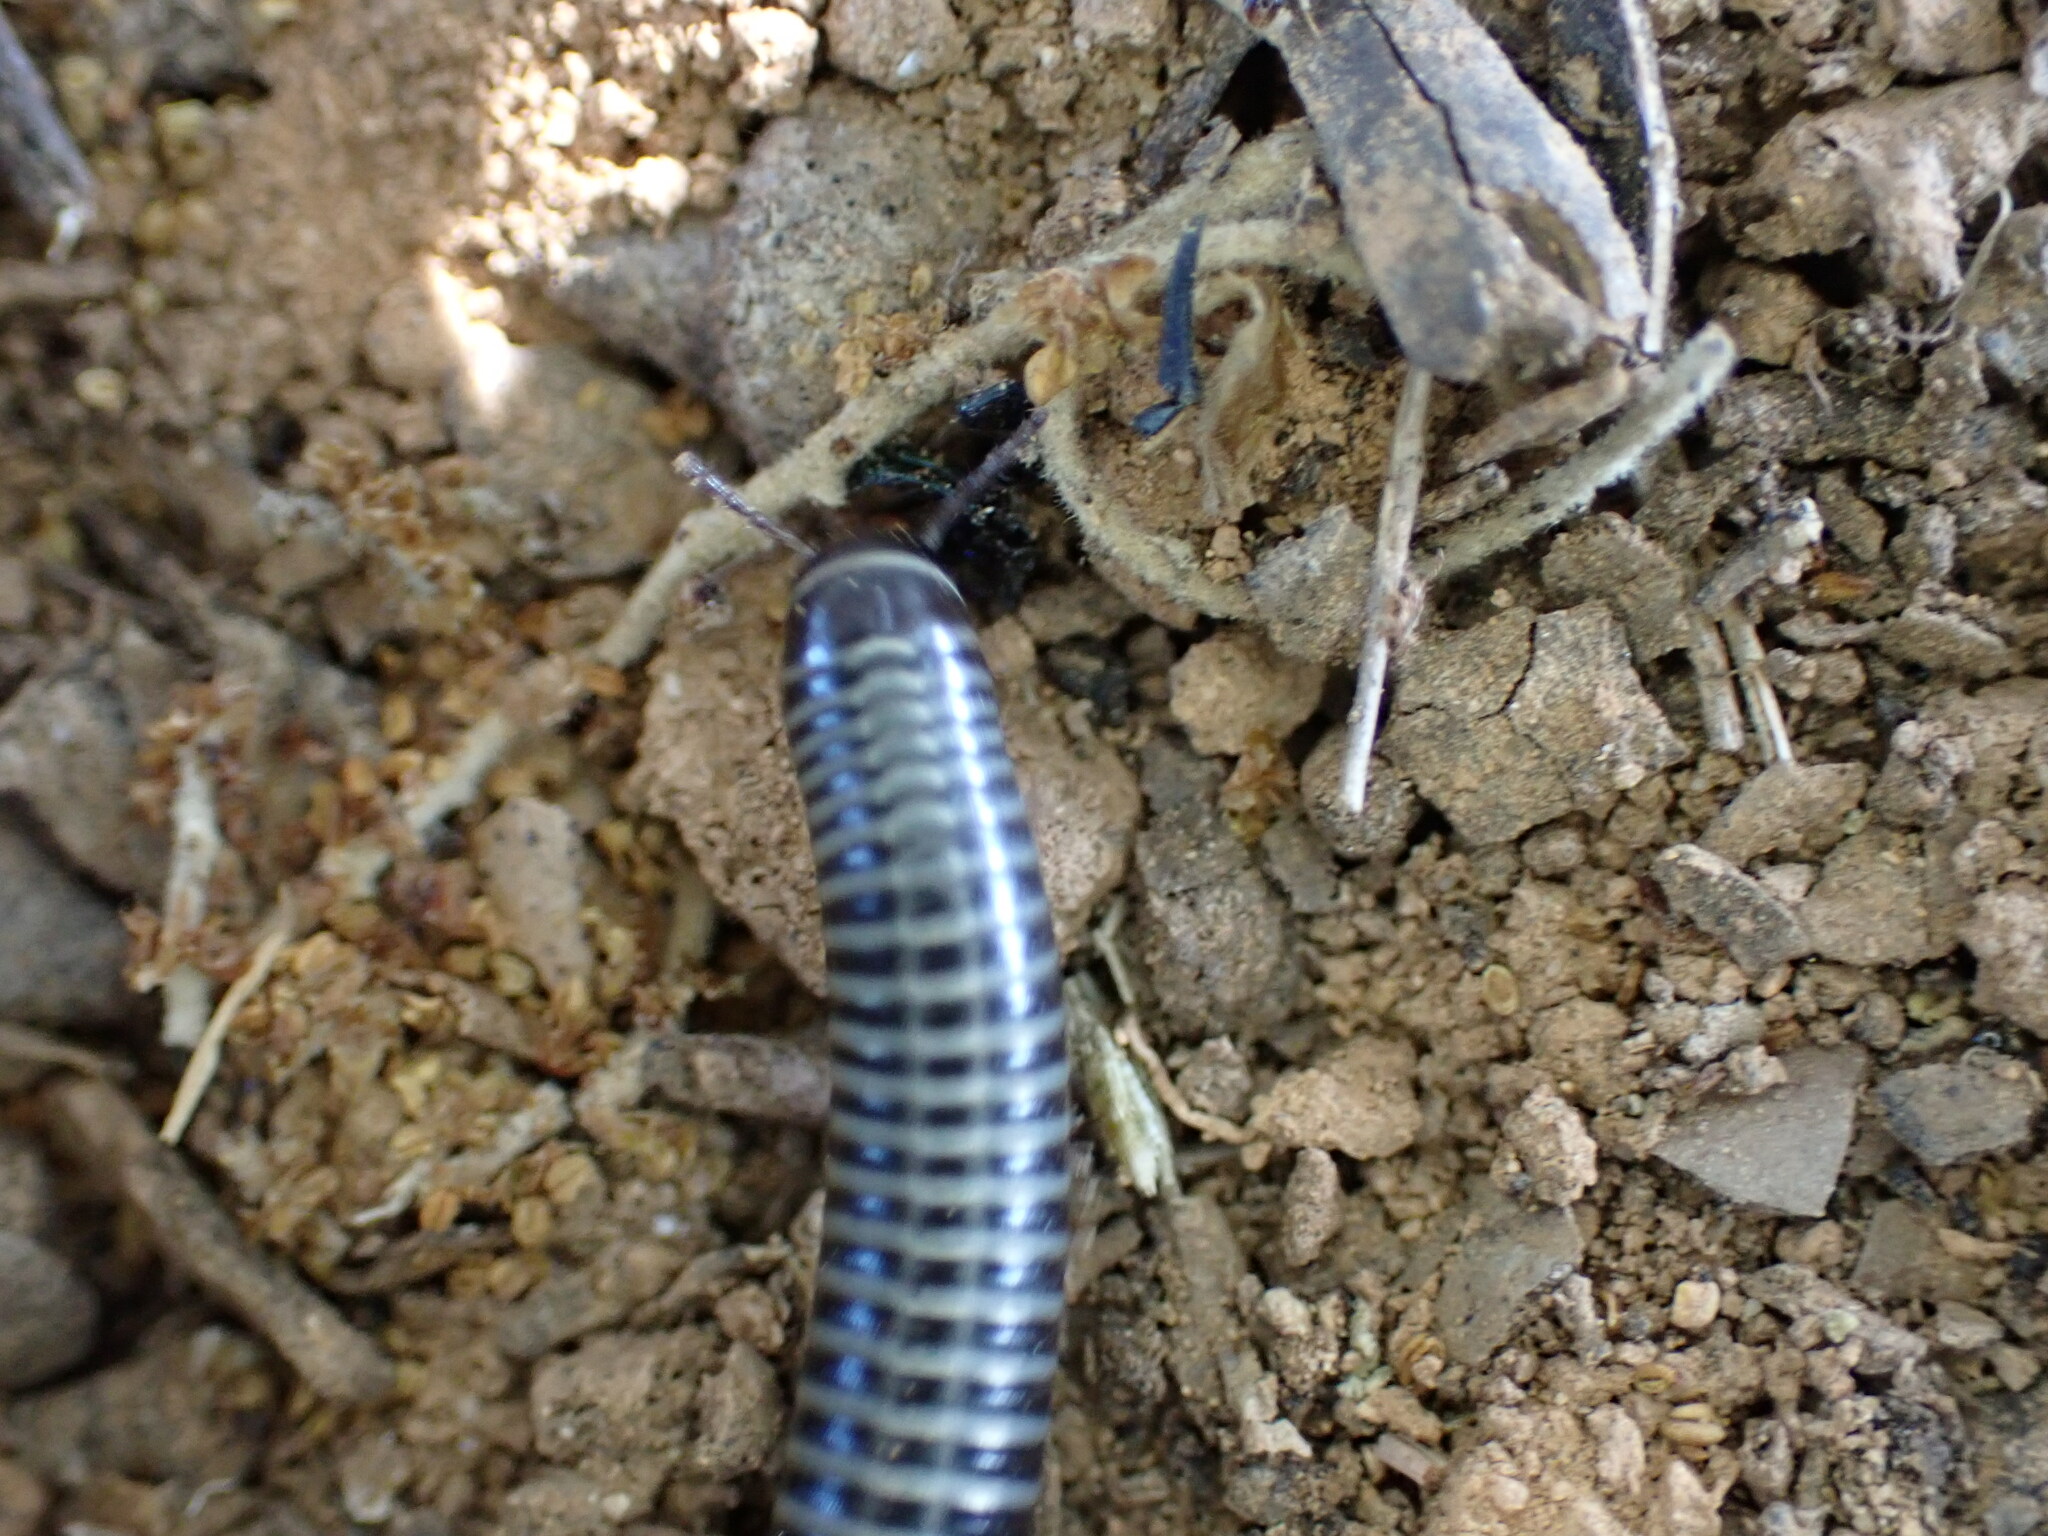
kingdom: Animalia
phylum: Arthropoda
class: Diplopoda
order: Julida
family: Julidae
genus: Ommatoiulus
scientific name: Ommatoiulus sabulosus
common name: Striped millipede
